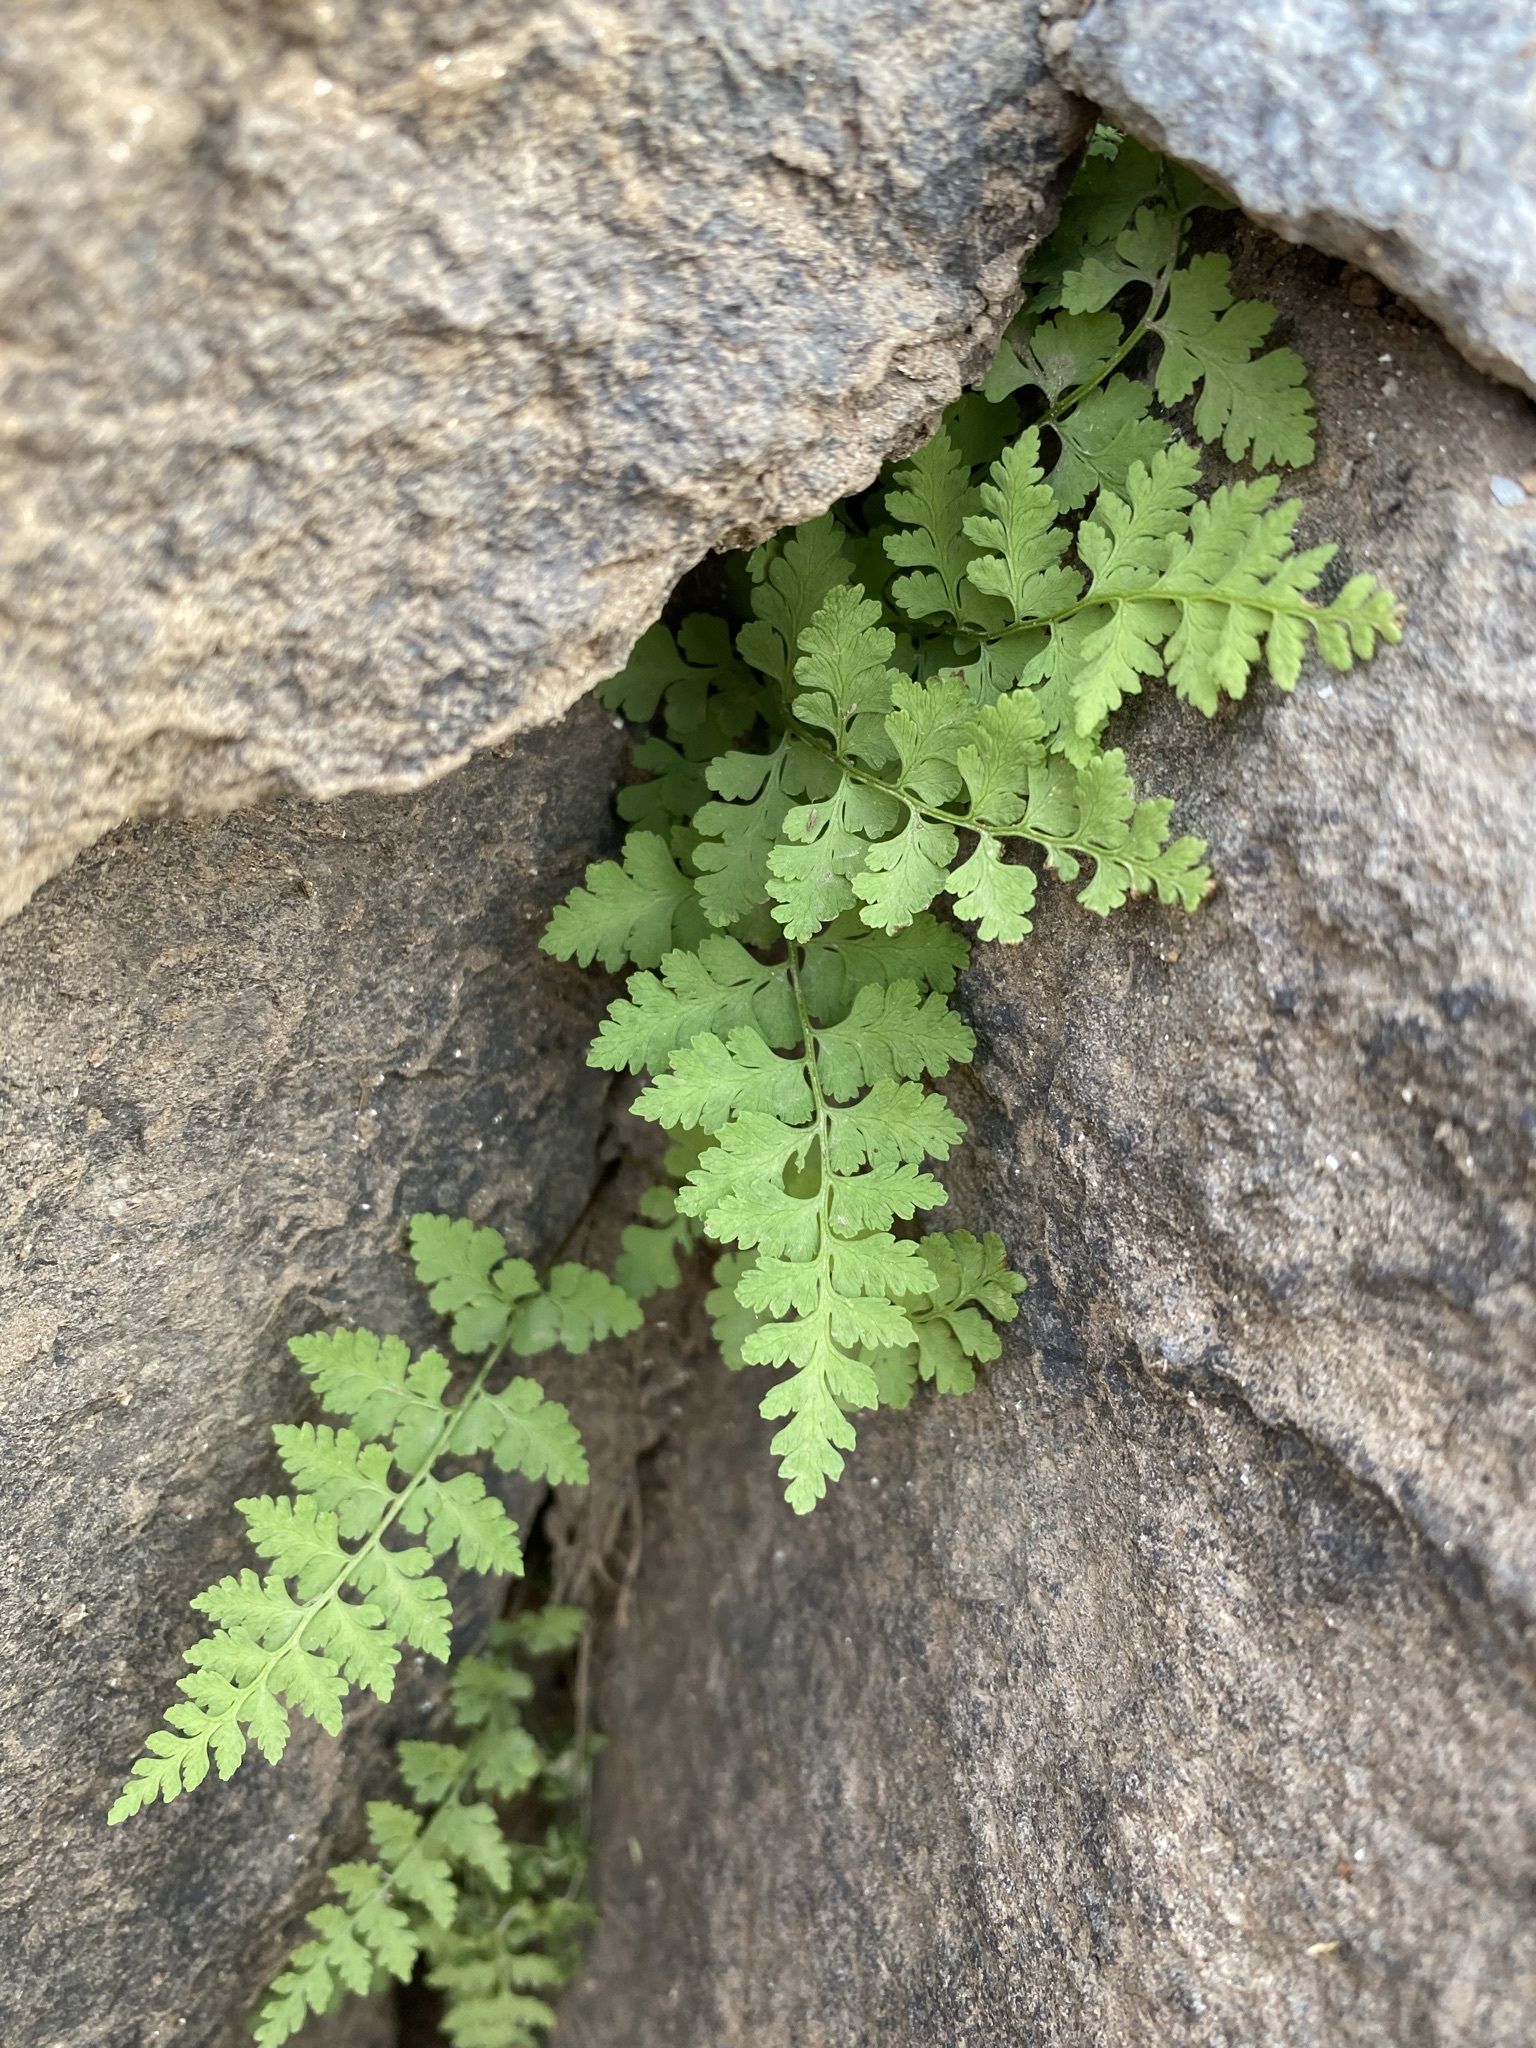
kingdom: Plantae
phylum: Tracheophyta
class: Polypodiopsida
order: Polypodiales
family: Cystopteridaceae
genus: Cystopteris
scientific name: Cystopteris fragilis
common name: Brittle bladder fern
